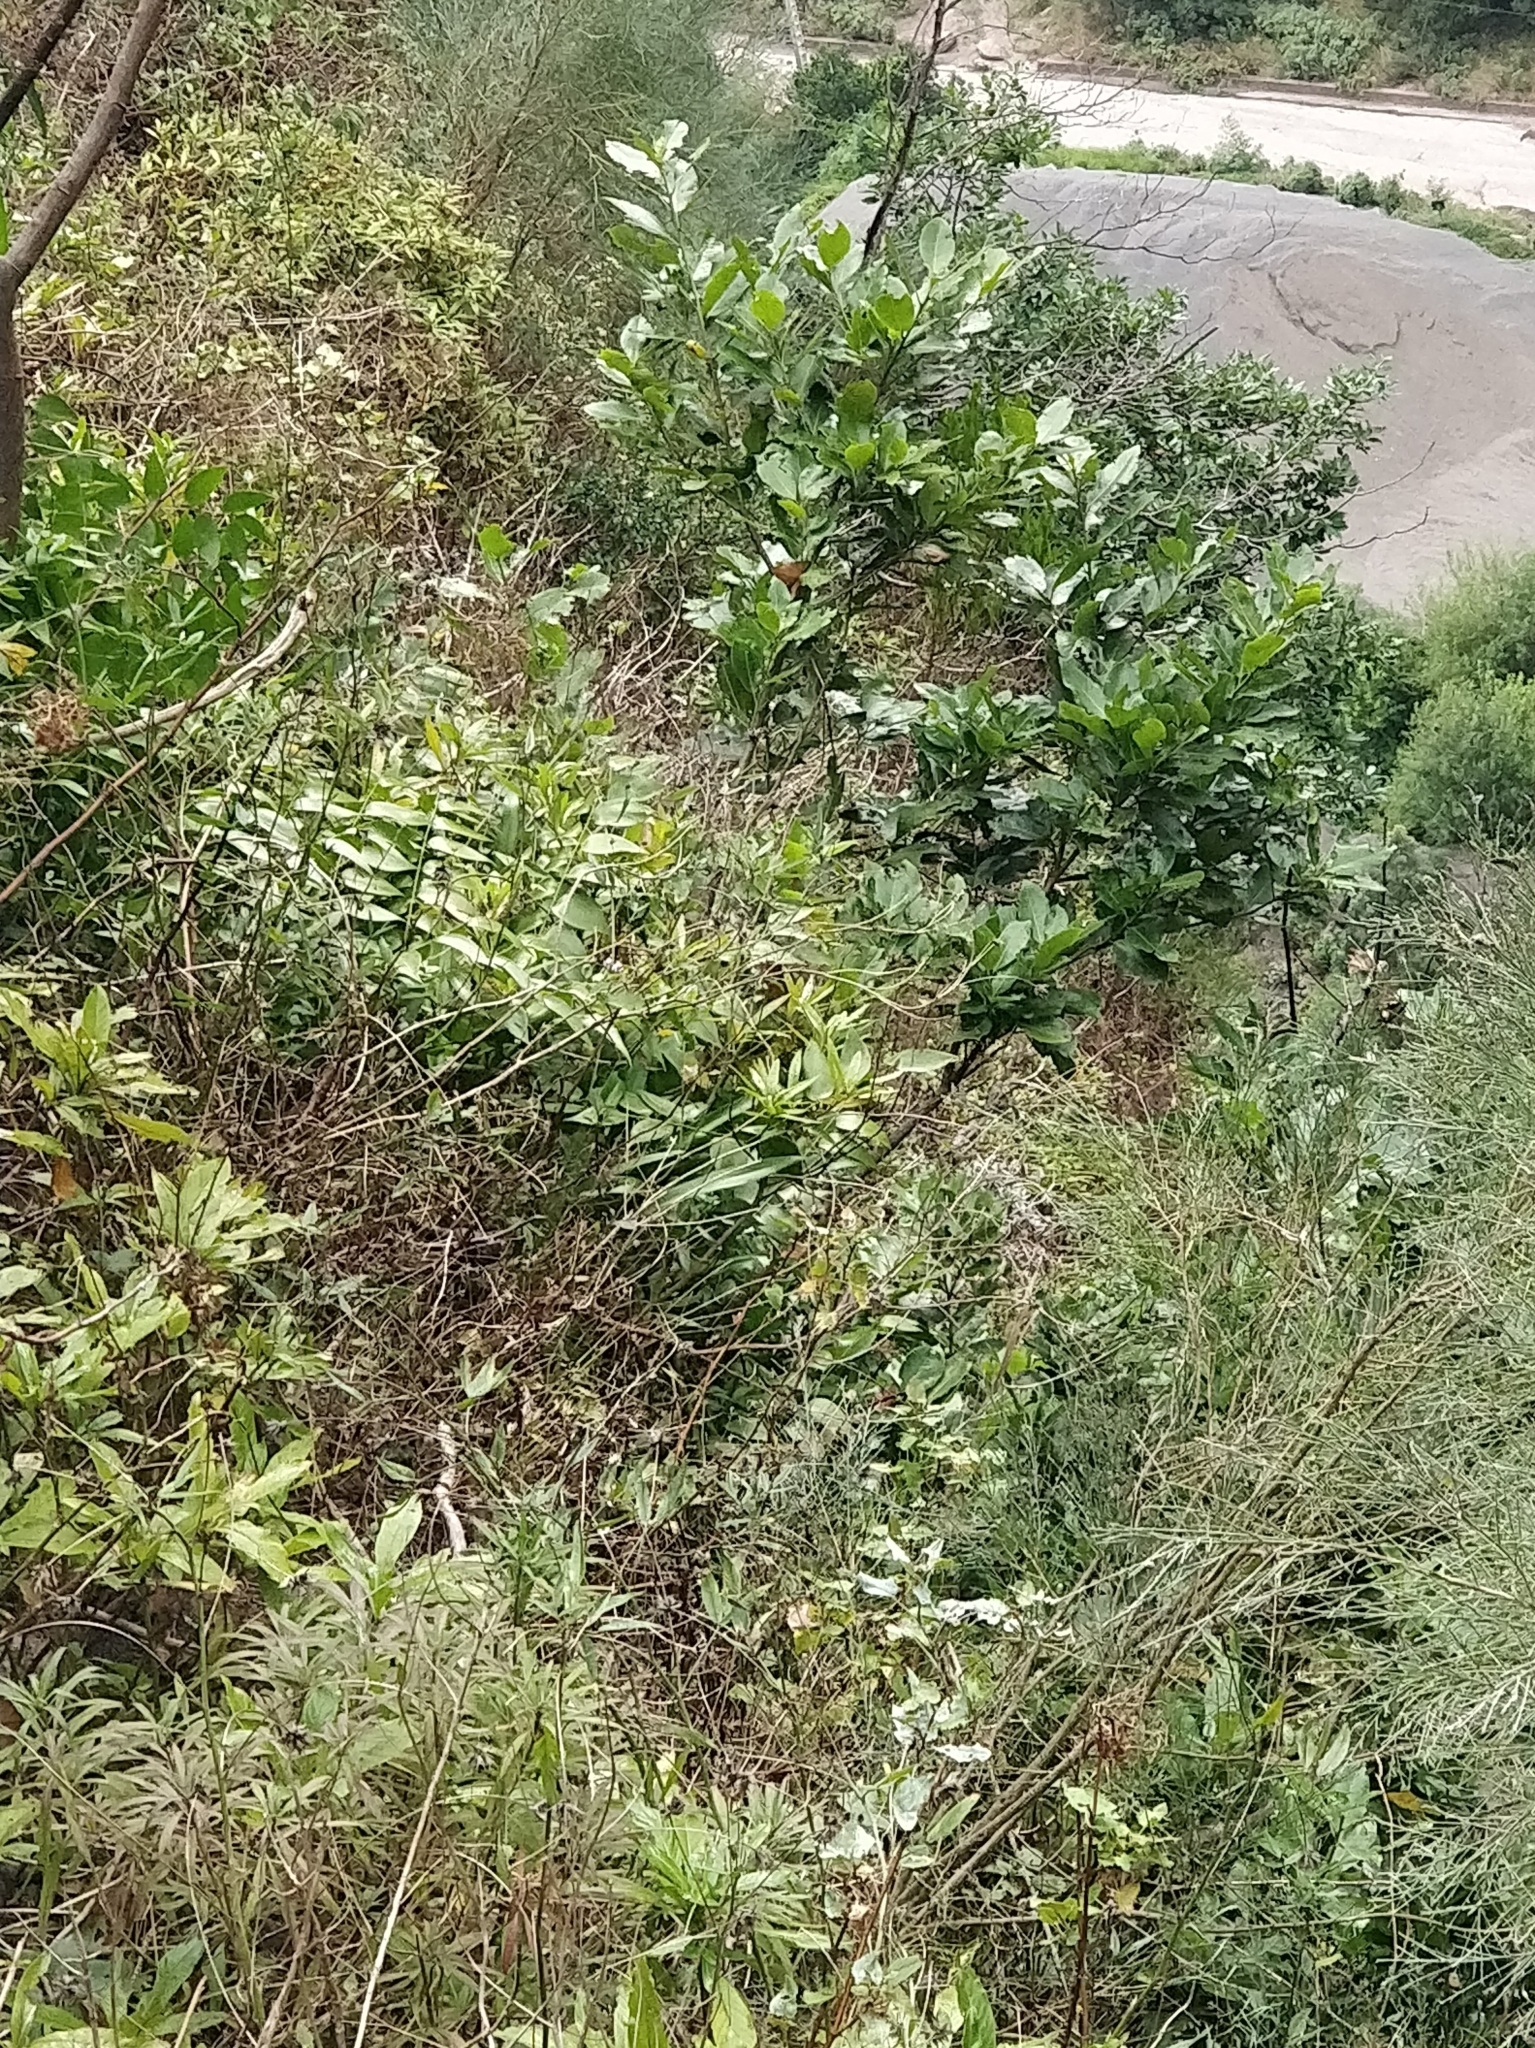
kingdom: Plantae
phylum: Tracheophyta
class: Liliopsida
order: Asparagales
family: Asparagaceae
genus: Semele
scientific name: Semele androgyna
